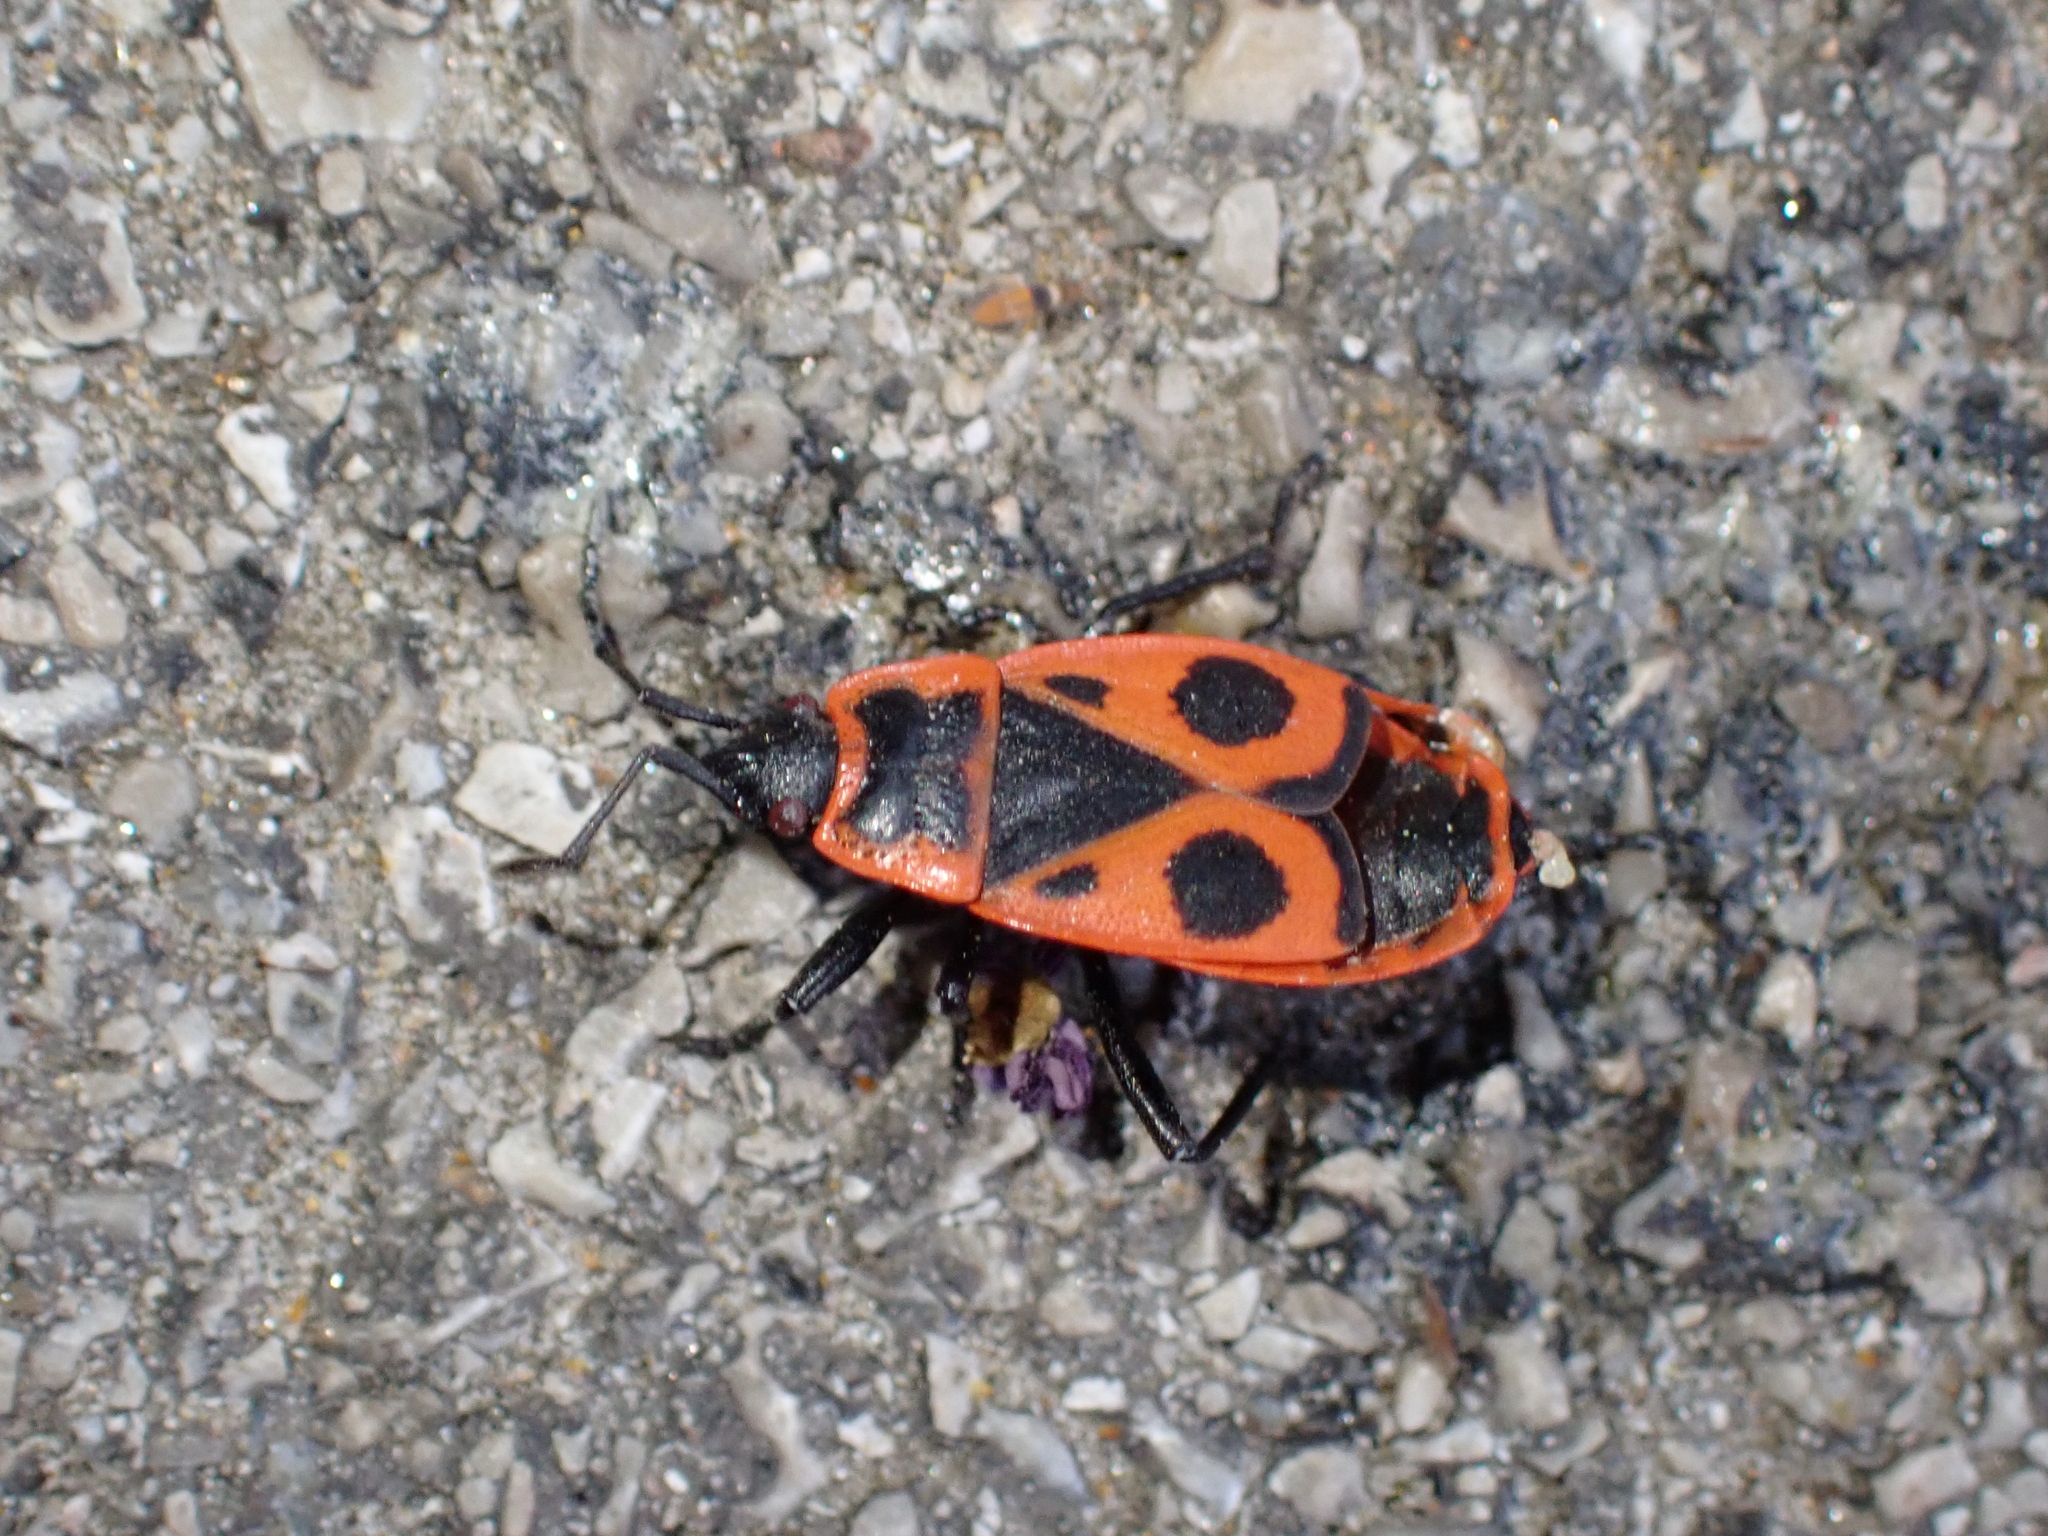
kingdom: Animalia
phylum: Arthropoda
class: Insecta
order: Hemiptera
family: Pyrrhocoridae
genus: Pyrrhocoris
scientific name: Pyrrhocoris apterus
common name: Firebug
